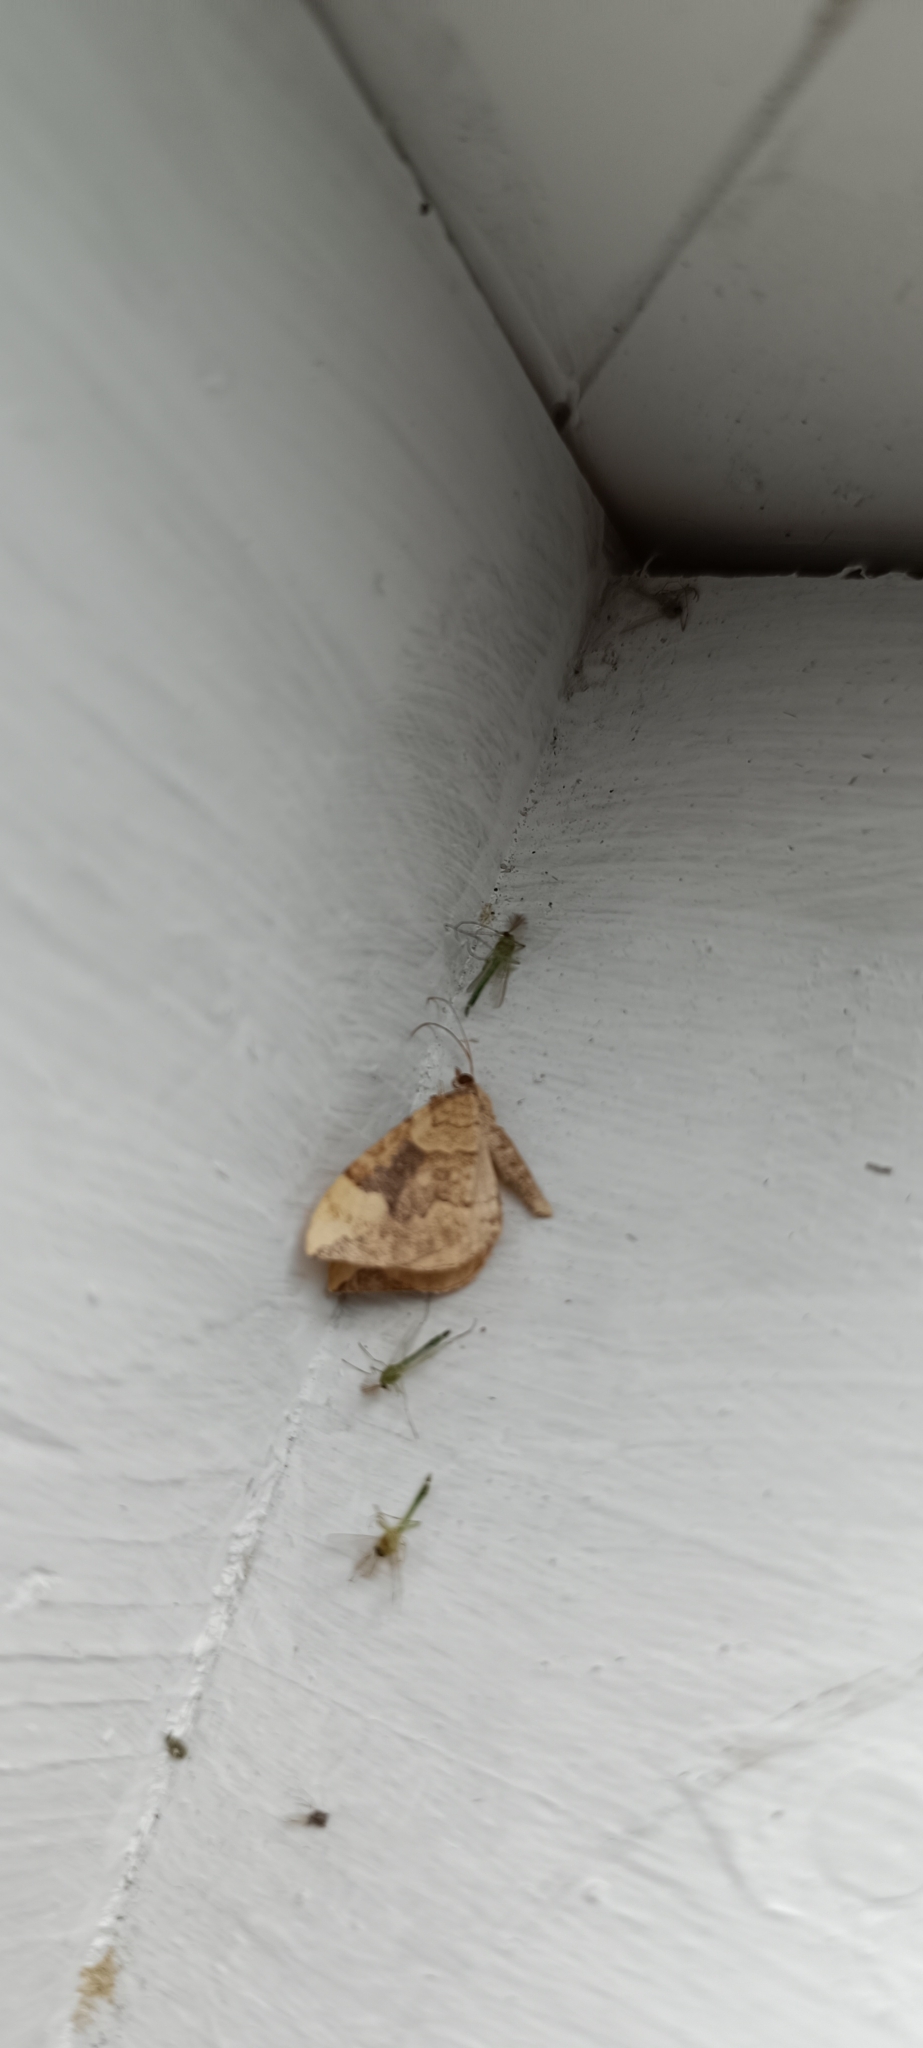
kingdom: Animalia
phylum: Arthropoda
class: Insecta
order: Lepidoptera
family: Geometridae
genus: Eulithis
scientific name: Eulithis populata
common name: Northern spinach
